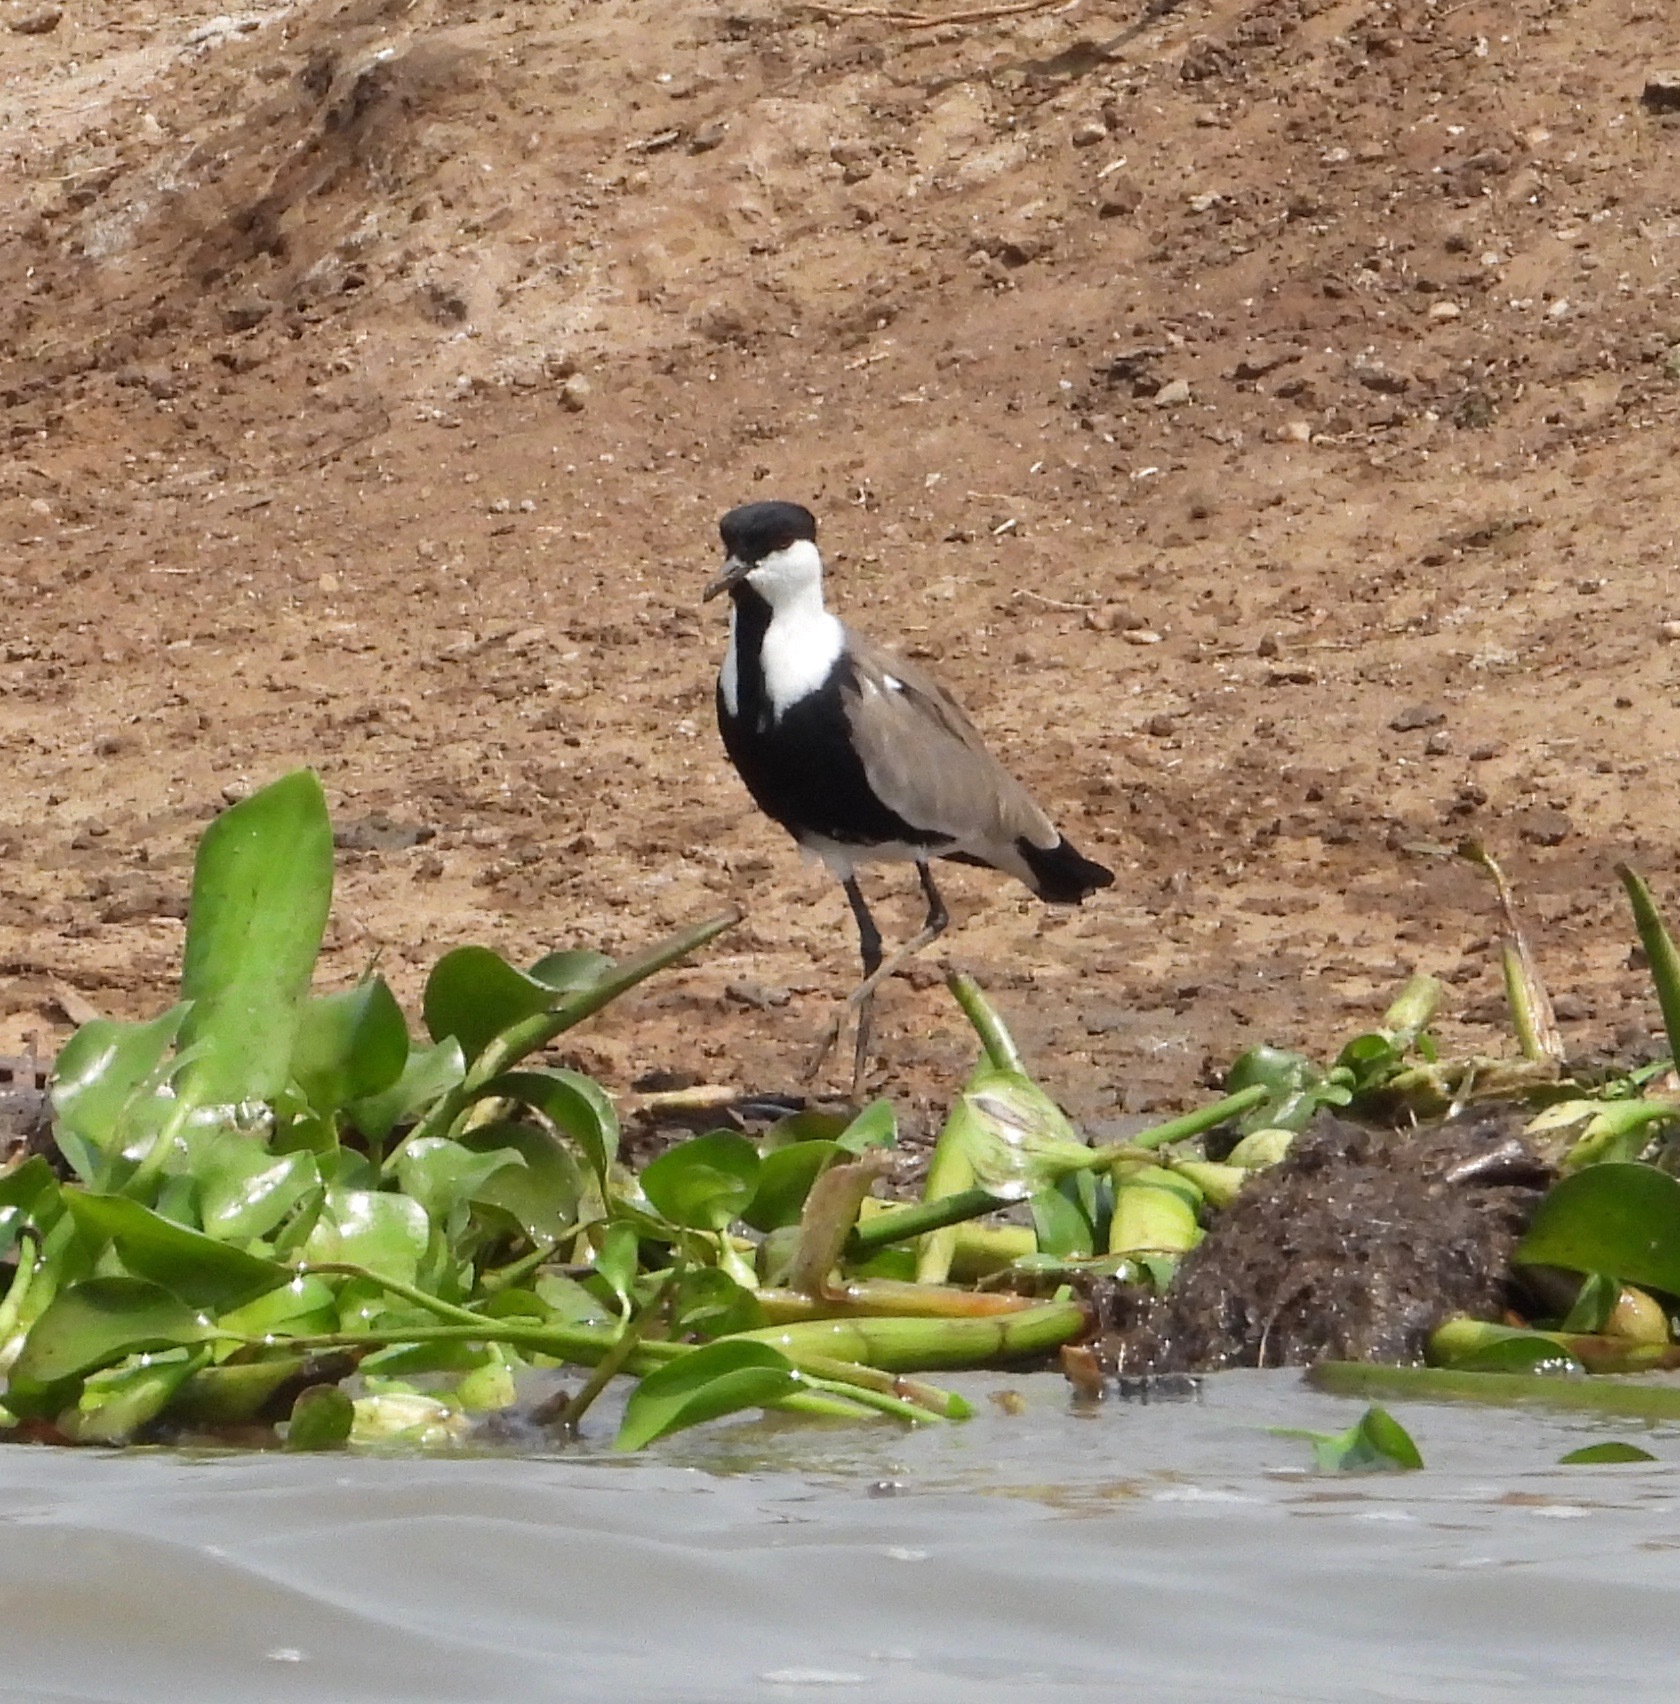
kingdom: Animalia
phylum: Chordata
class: Aves
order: Charadriiformes
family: Charadriidae
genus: Vanellus
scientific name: Vanellus spinosus
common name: Spur-winged lapwing
